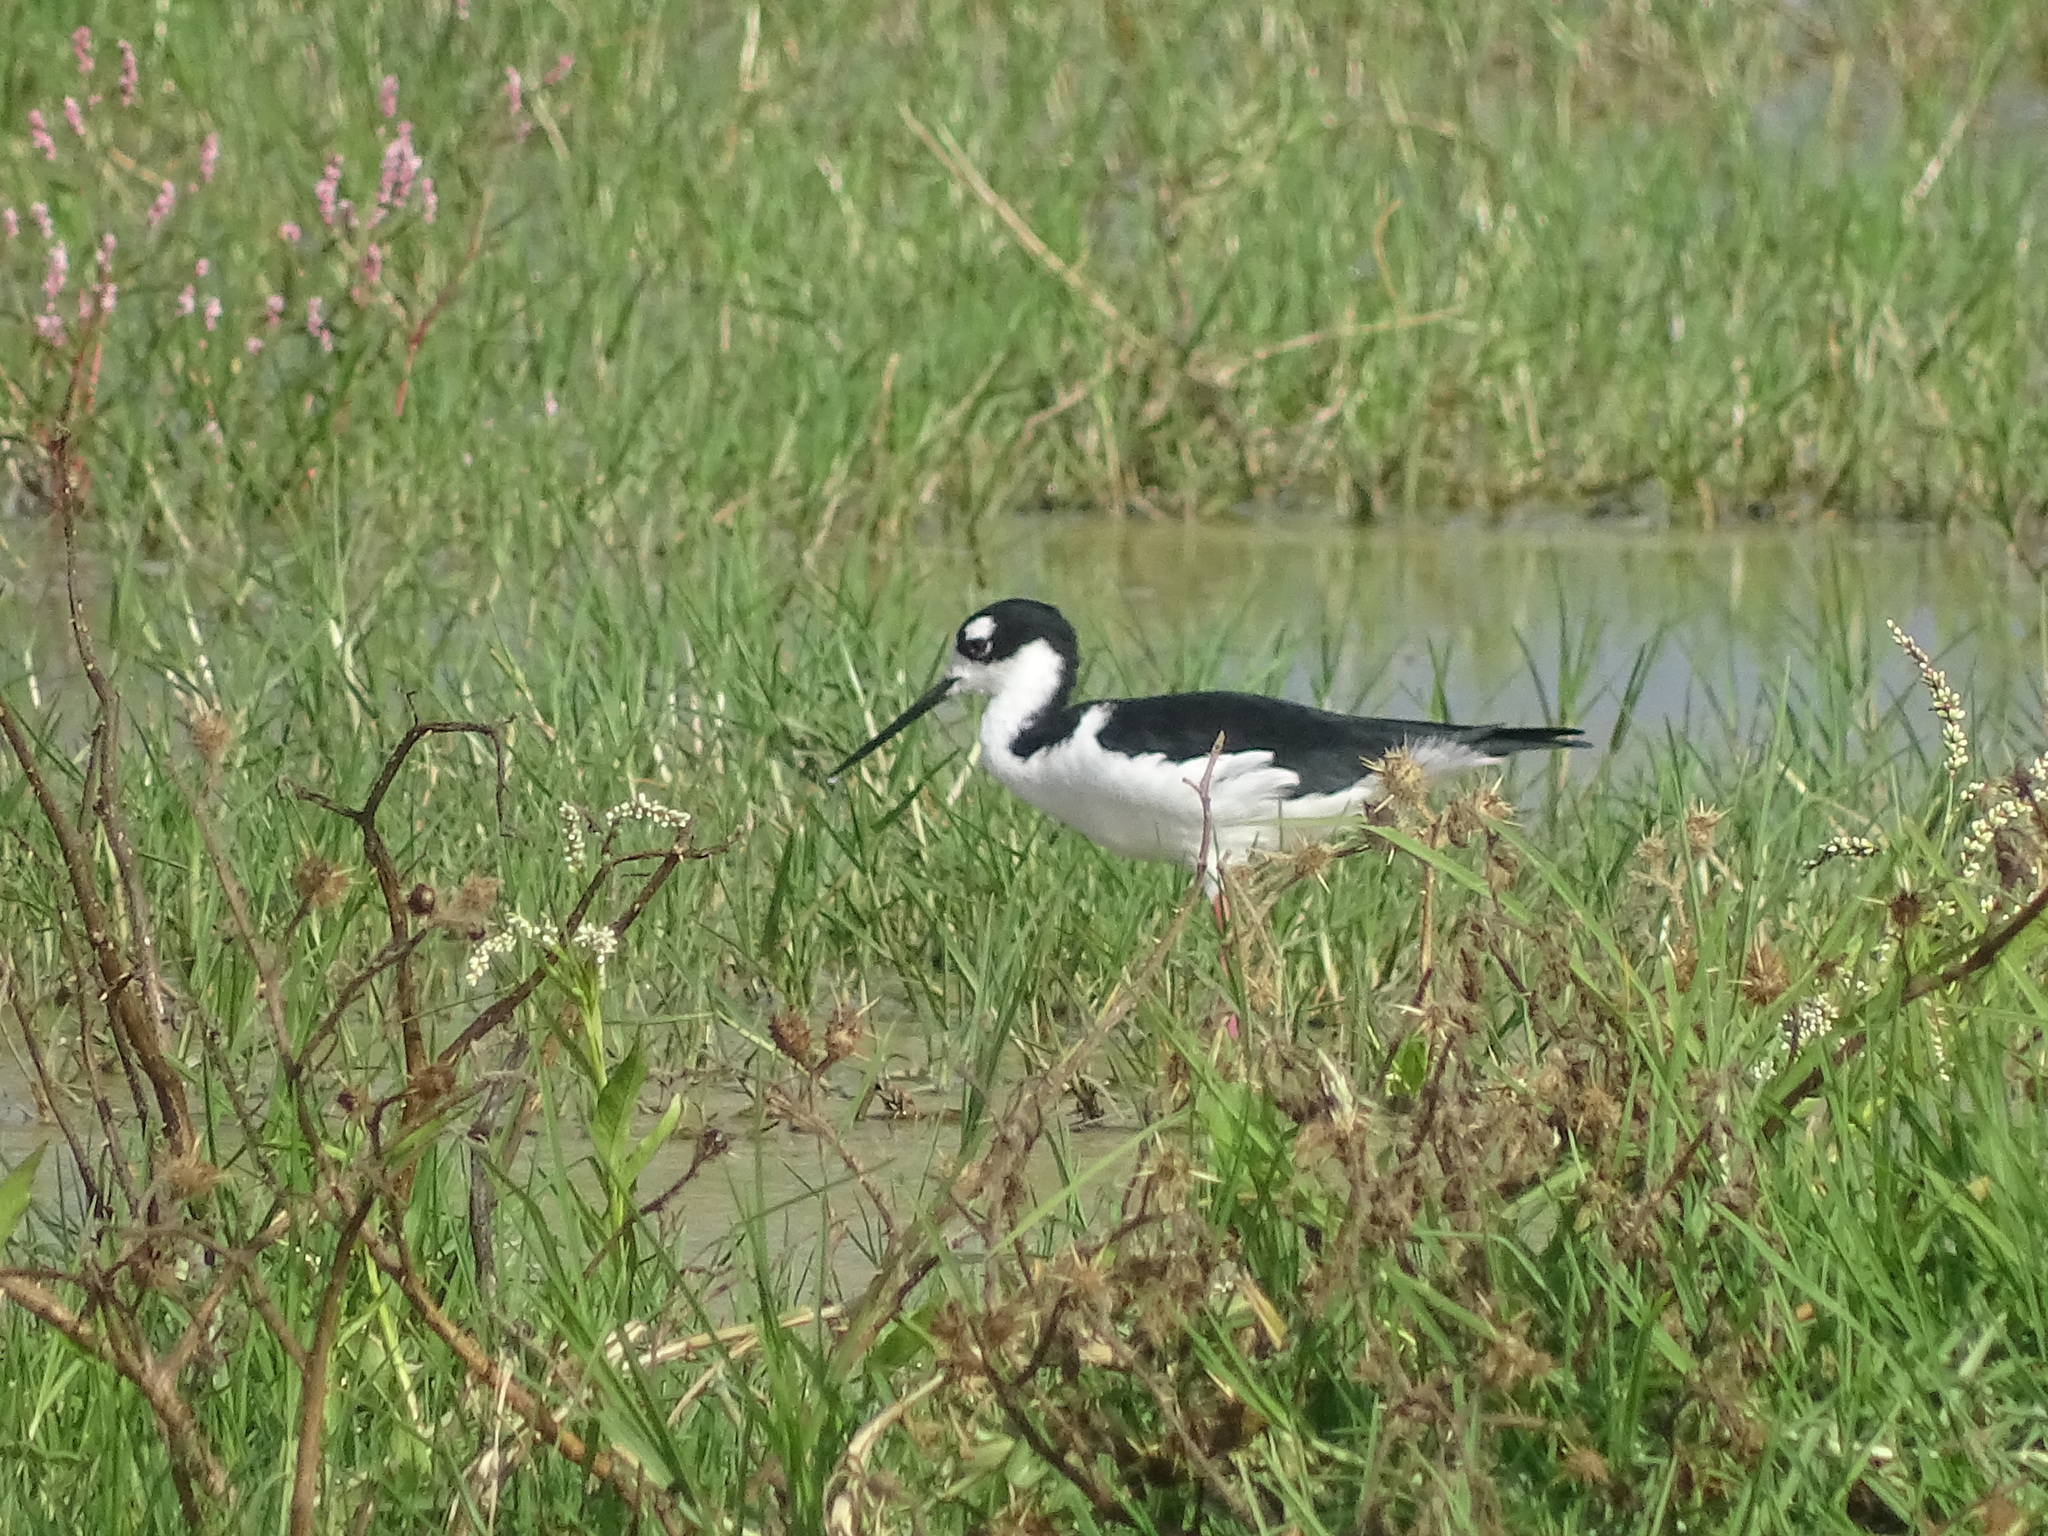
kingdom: Animalia
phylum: Chordata
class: Aves
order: Charadriiformes
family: Recurvirostridae
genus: Himantopus
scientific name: Himantopus mexicanus
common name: Black-necked stilt
